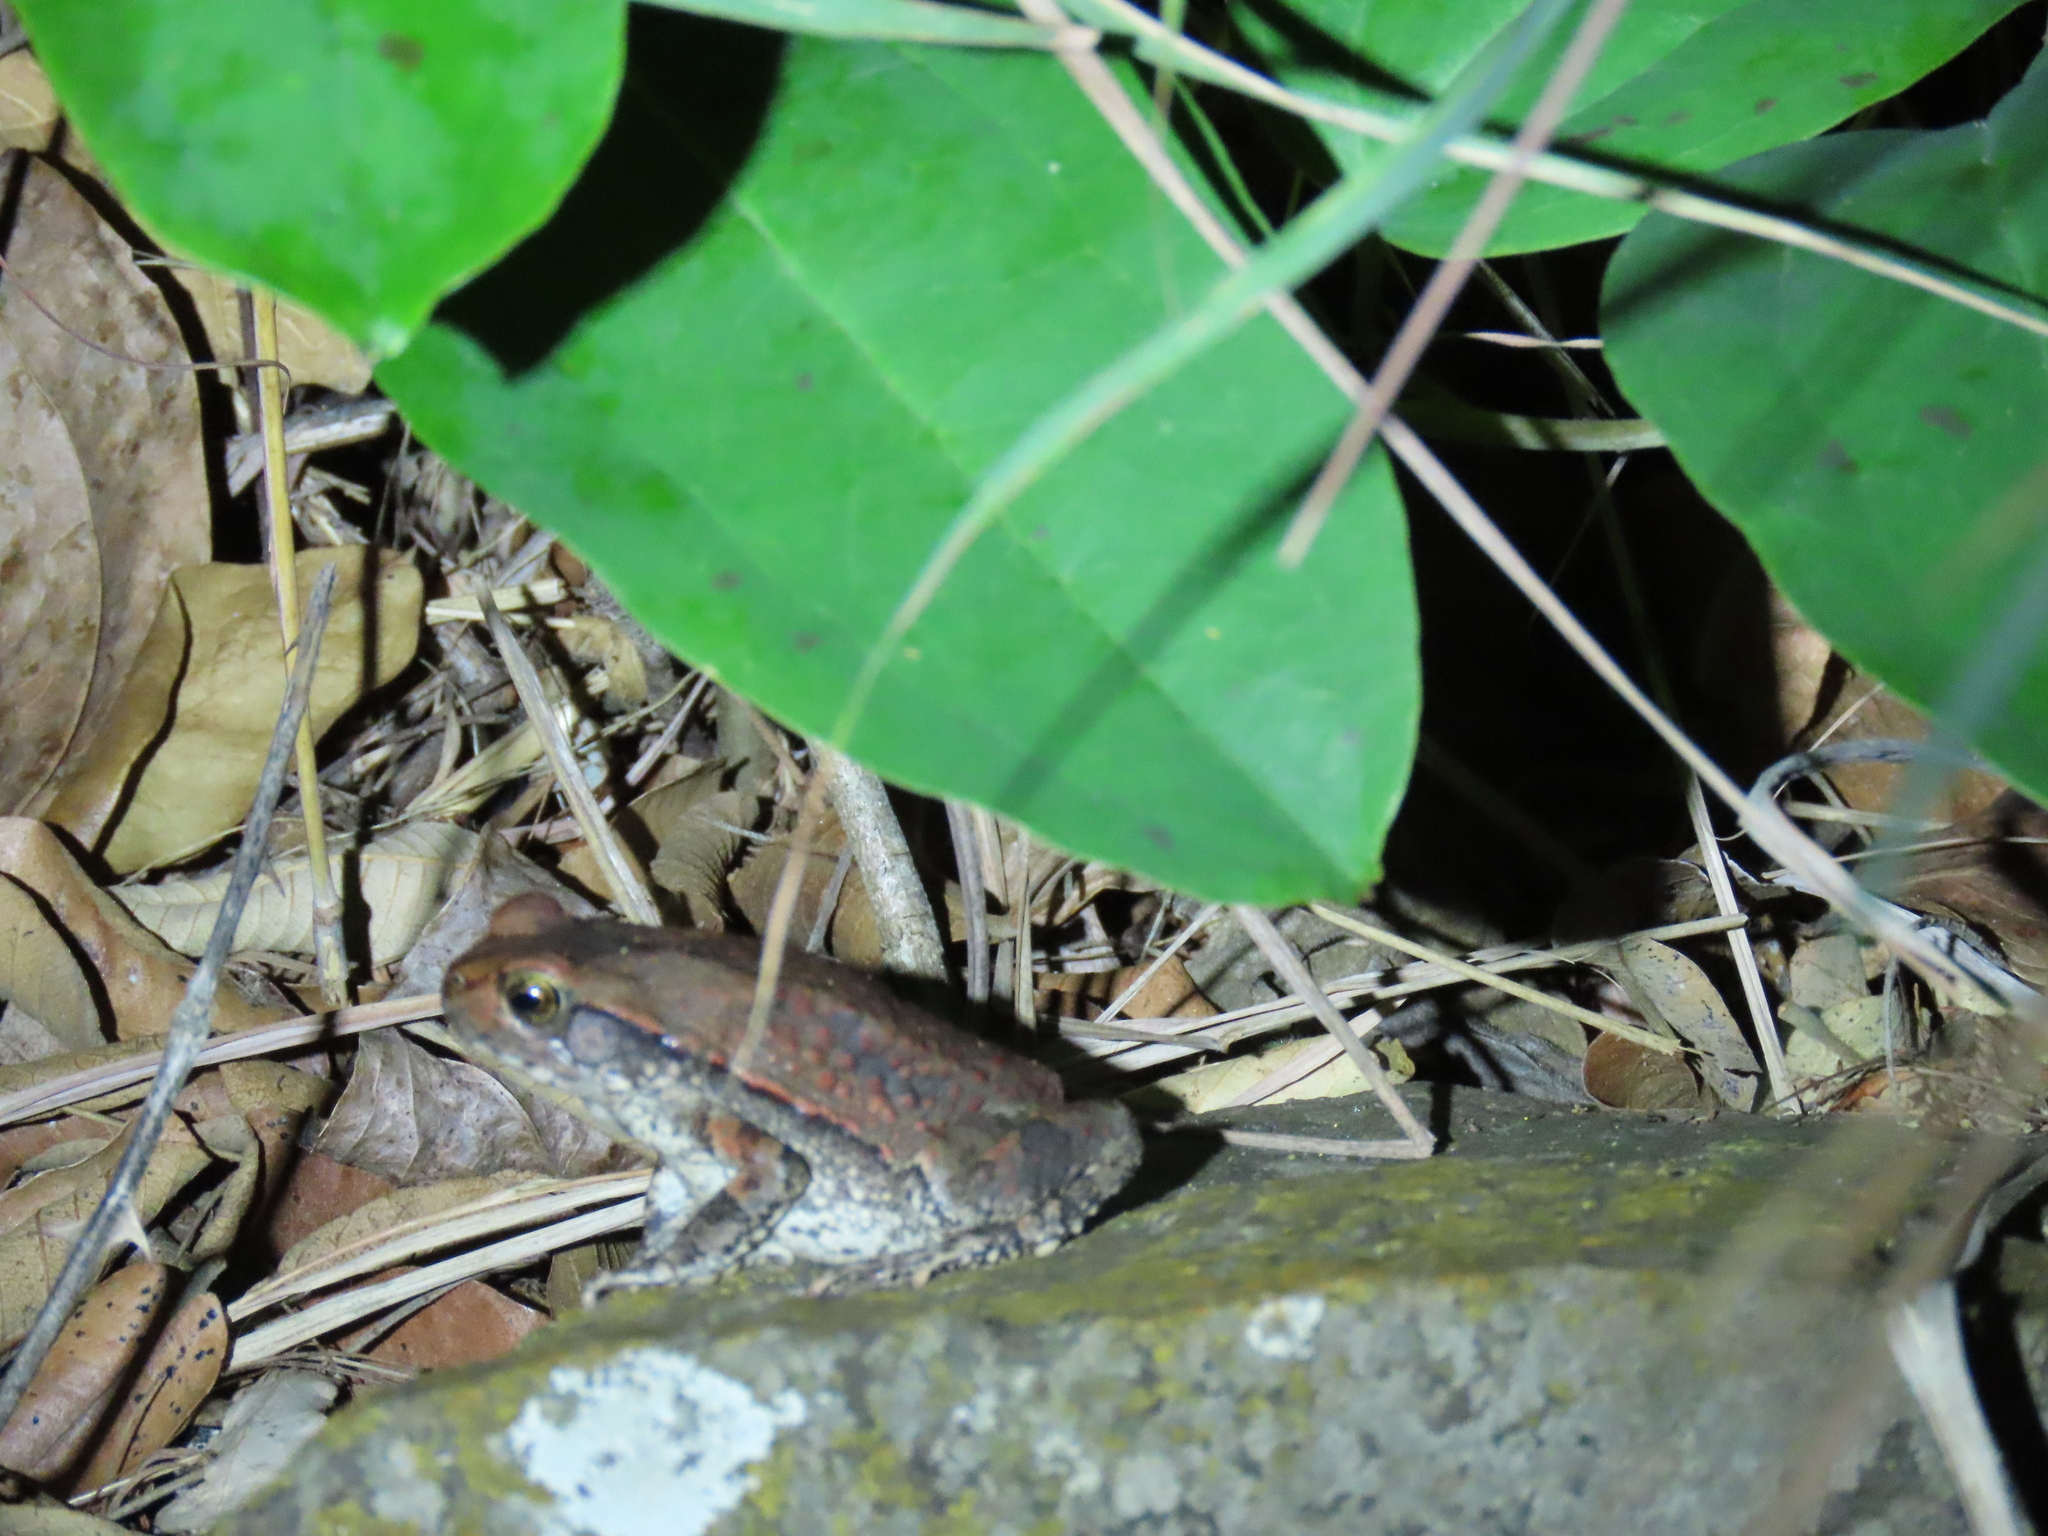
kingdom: Animalia
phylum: Chordata
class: Amphibia
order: Anura
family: Bufonidae
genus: Schismaderma
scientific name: Schismaderma carens
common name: African split-skin toad
